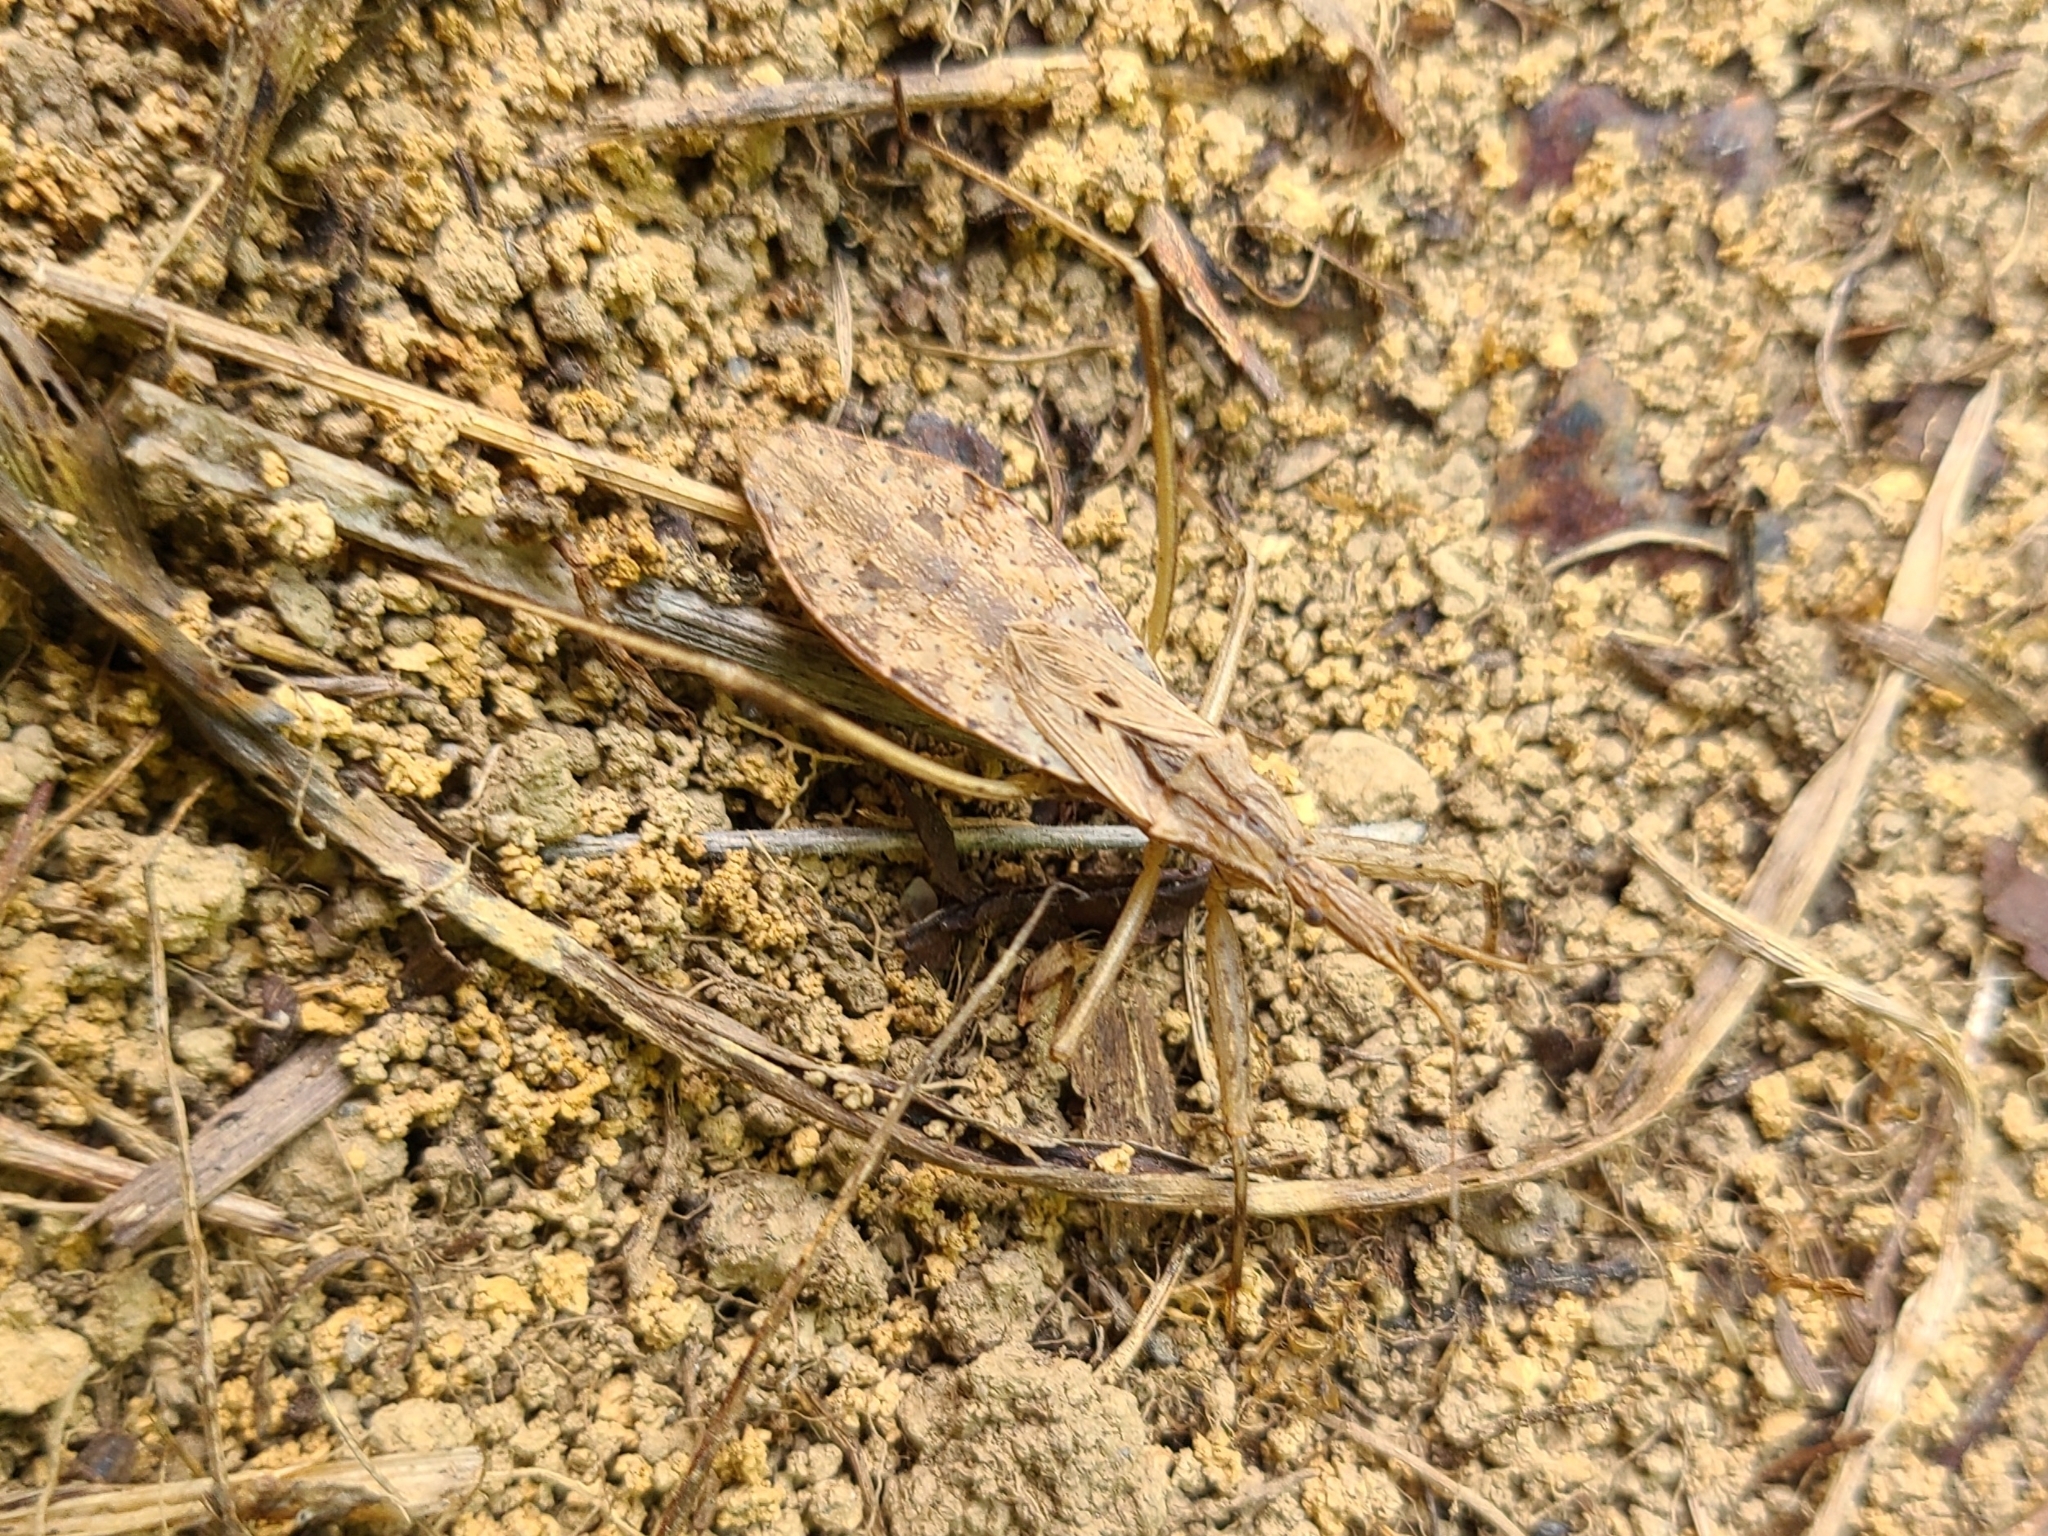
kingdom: Animalia
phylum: Arthropoda
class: Insecta
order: Hemiptera
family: Reduviidae
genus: Stenopoda
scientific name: Stenopoda spinulosa
